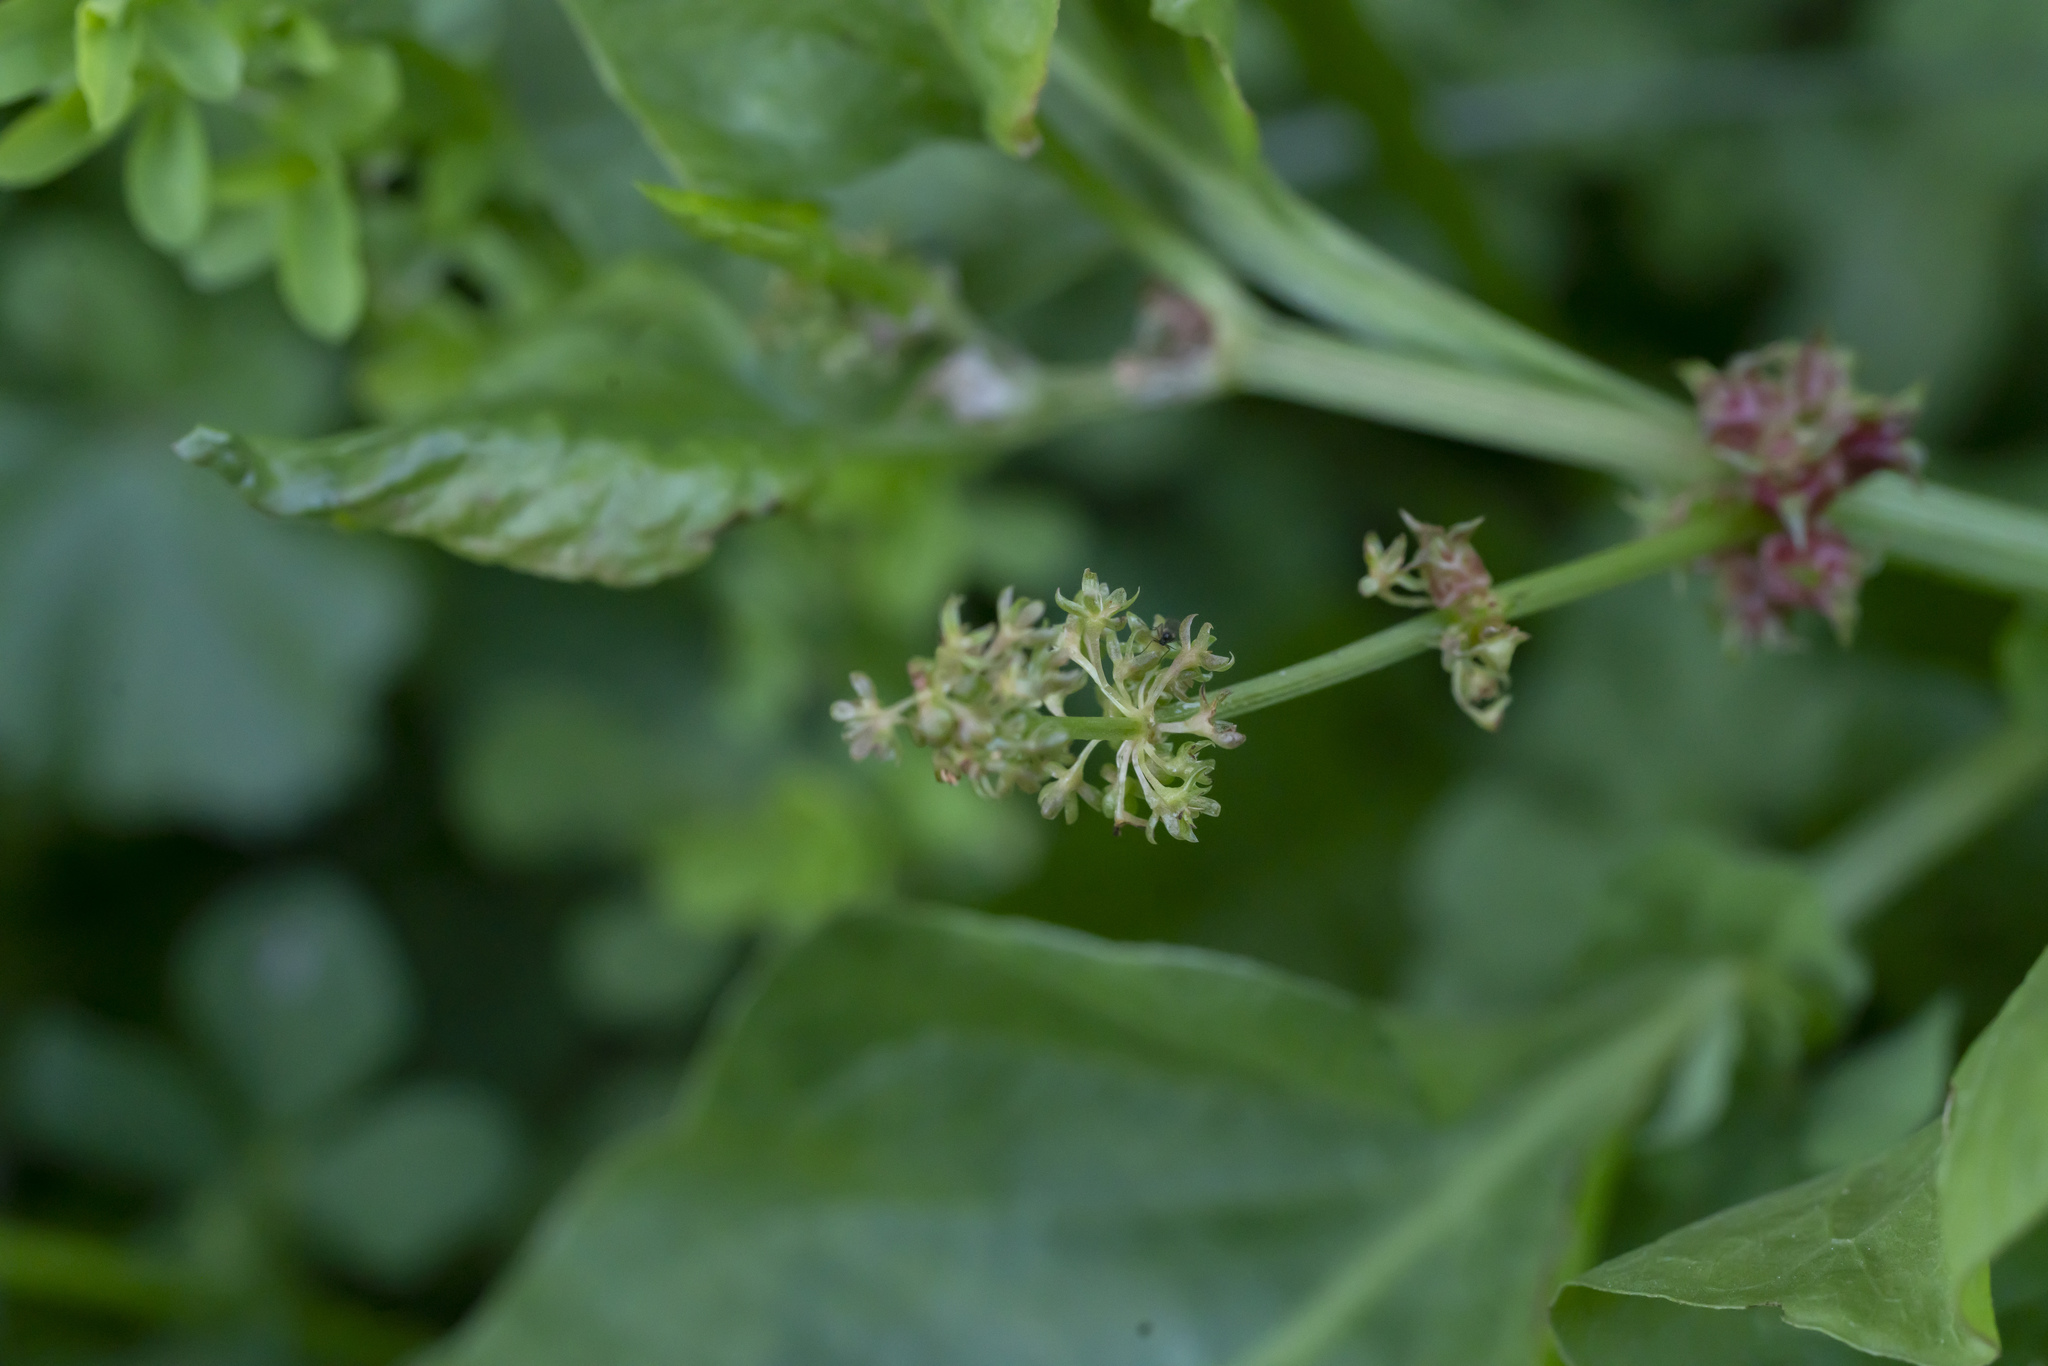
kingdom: Plantae
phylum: Tracheophyta
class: Magnoliopsida
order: Caryophyllales
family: Polygonaceae
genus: Rumex
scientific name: Rumex spinosus
